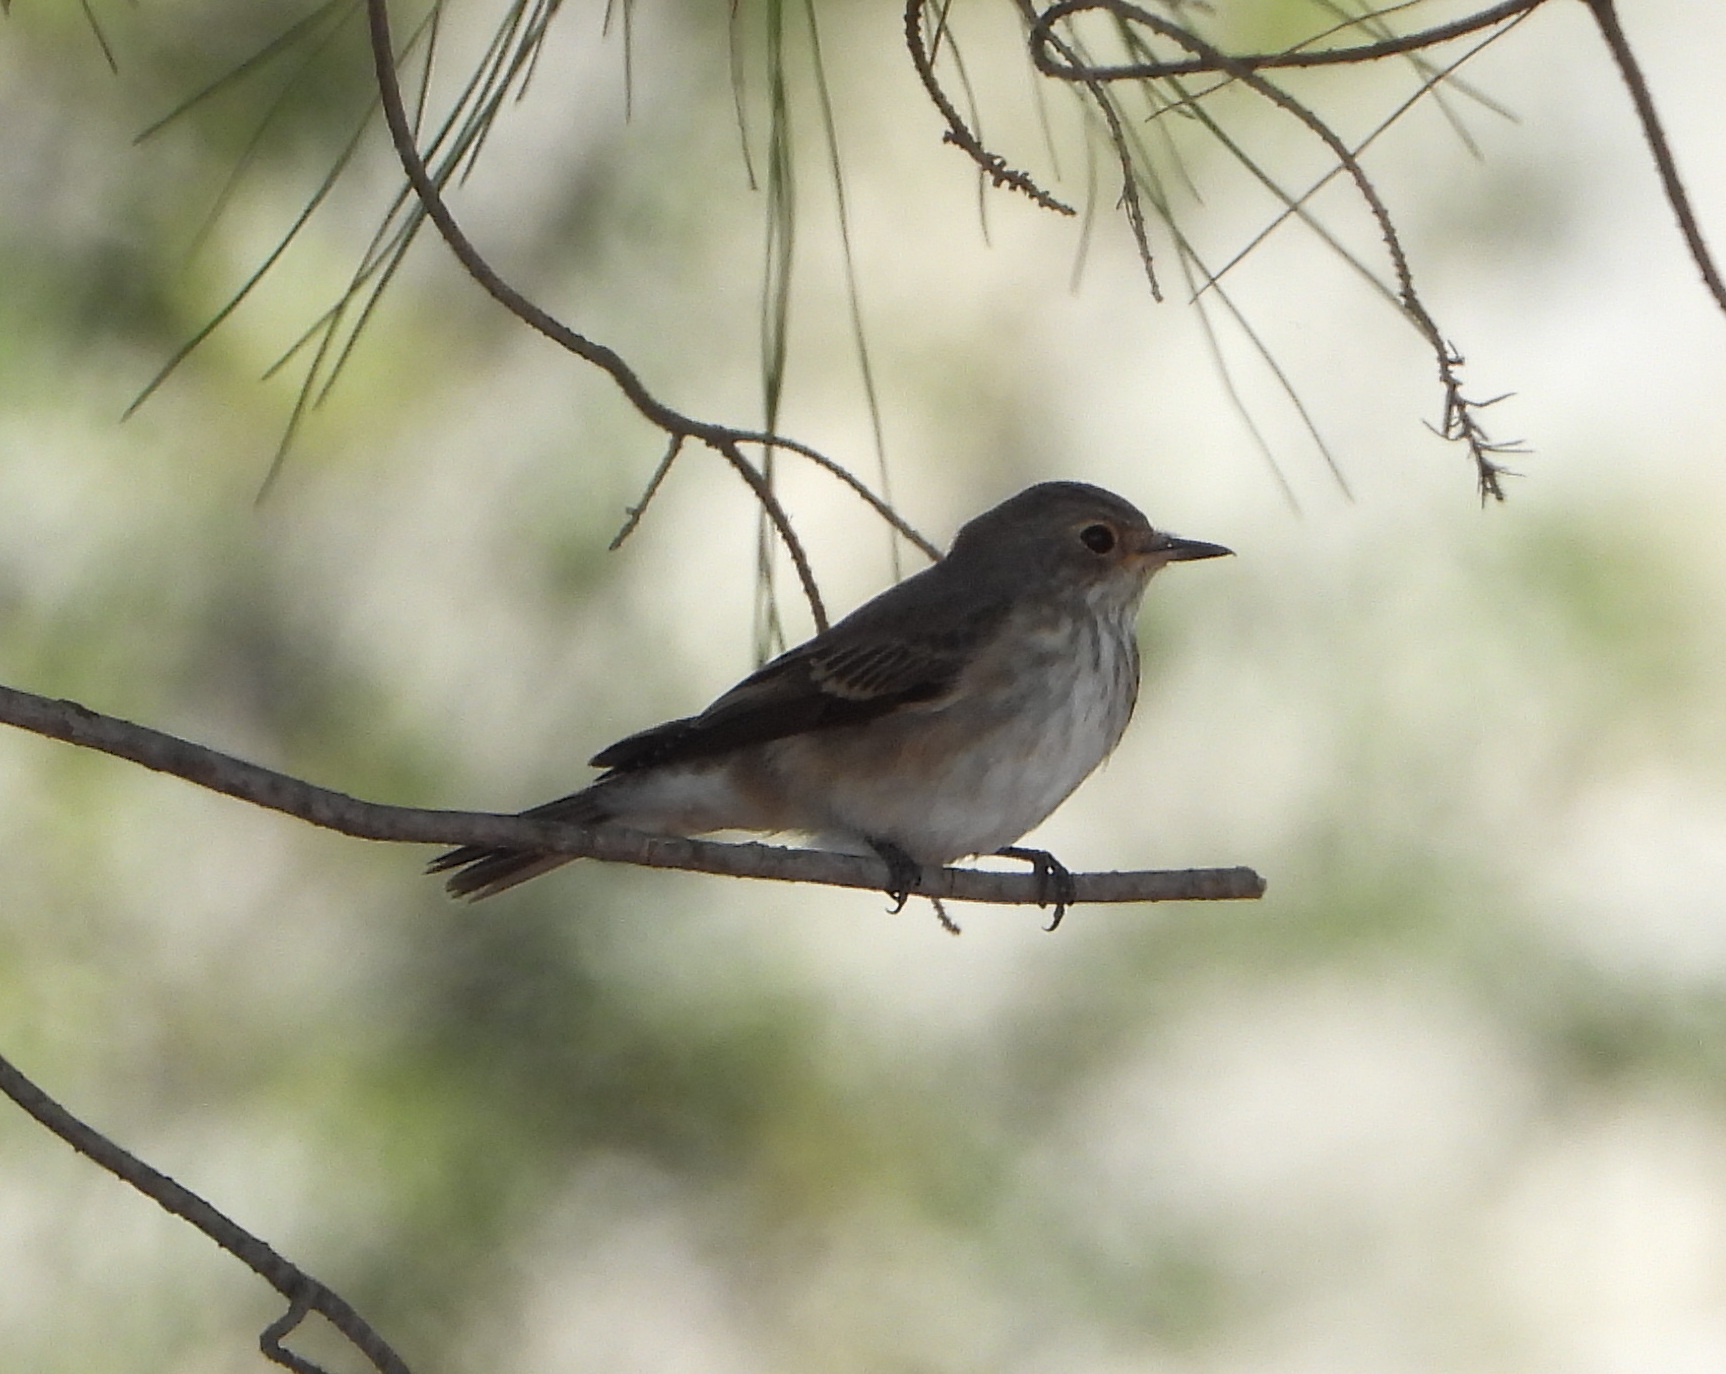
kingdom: Animalia
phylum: Chordata
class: Aves
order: Passeriformes
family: Muscicapidae
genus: Muscicapa
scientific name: Muscicapa striata
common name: Spotted flycatcher
